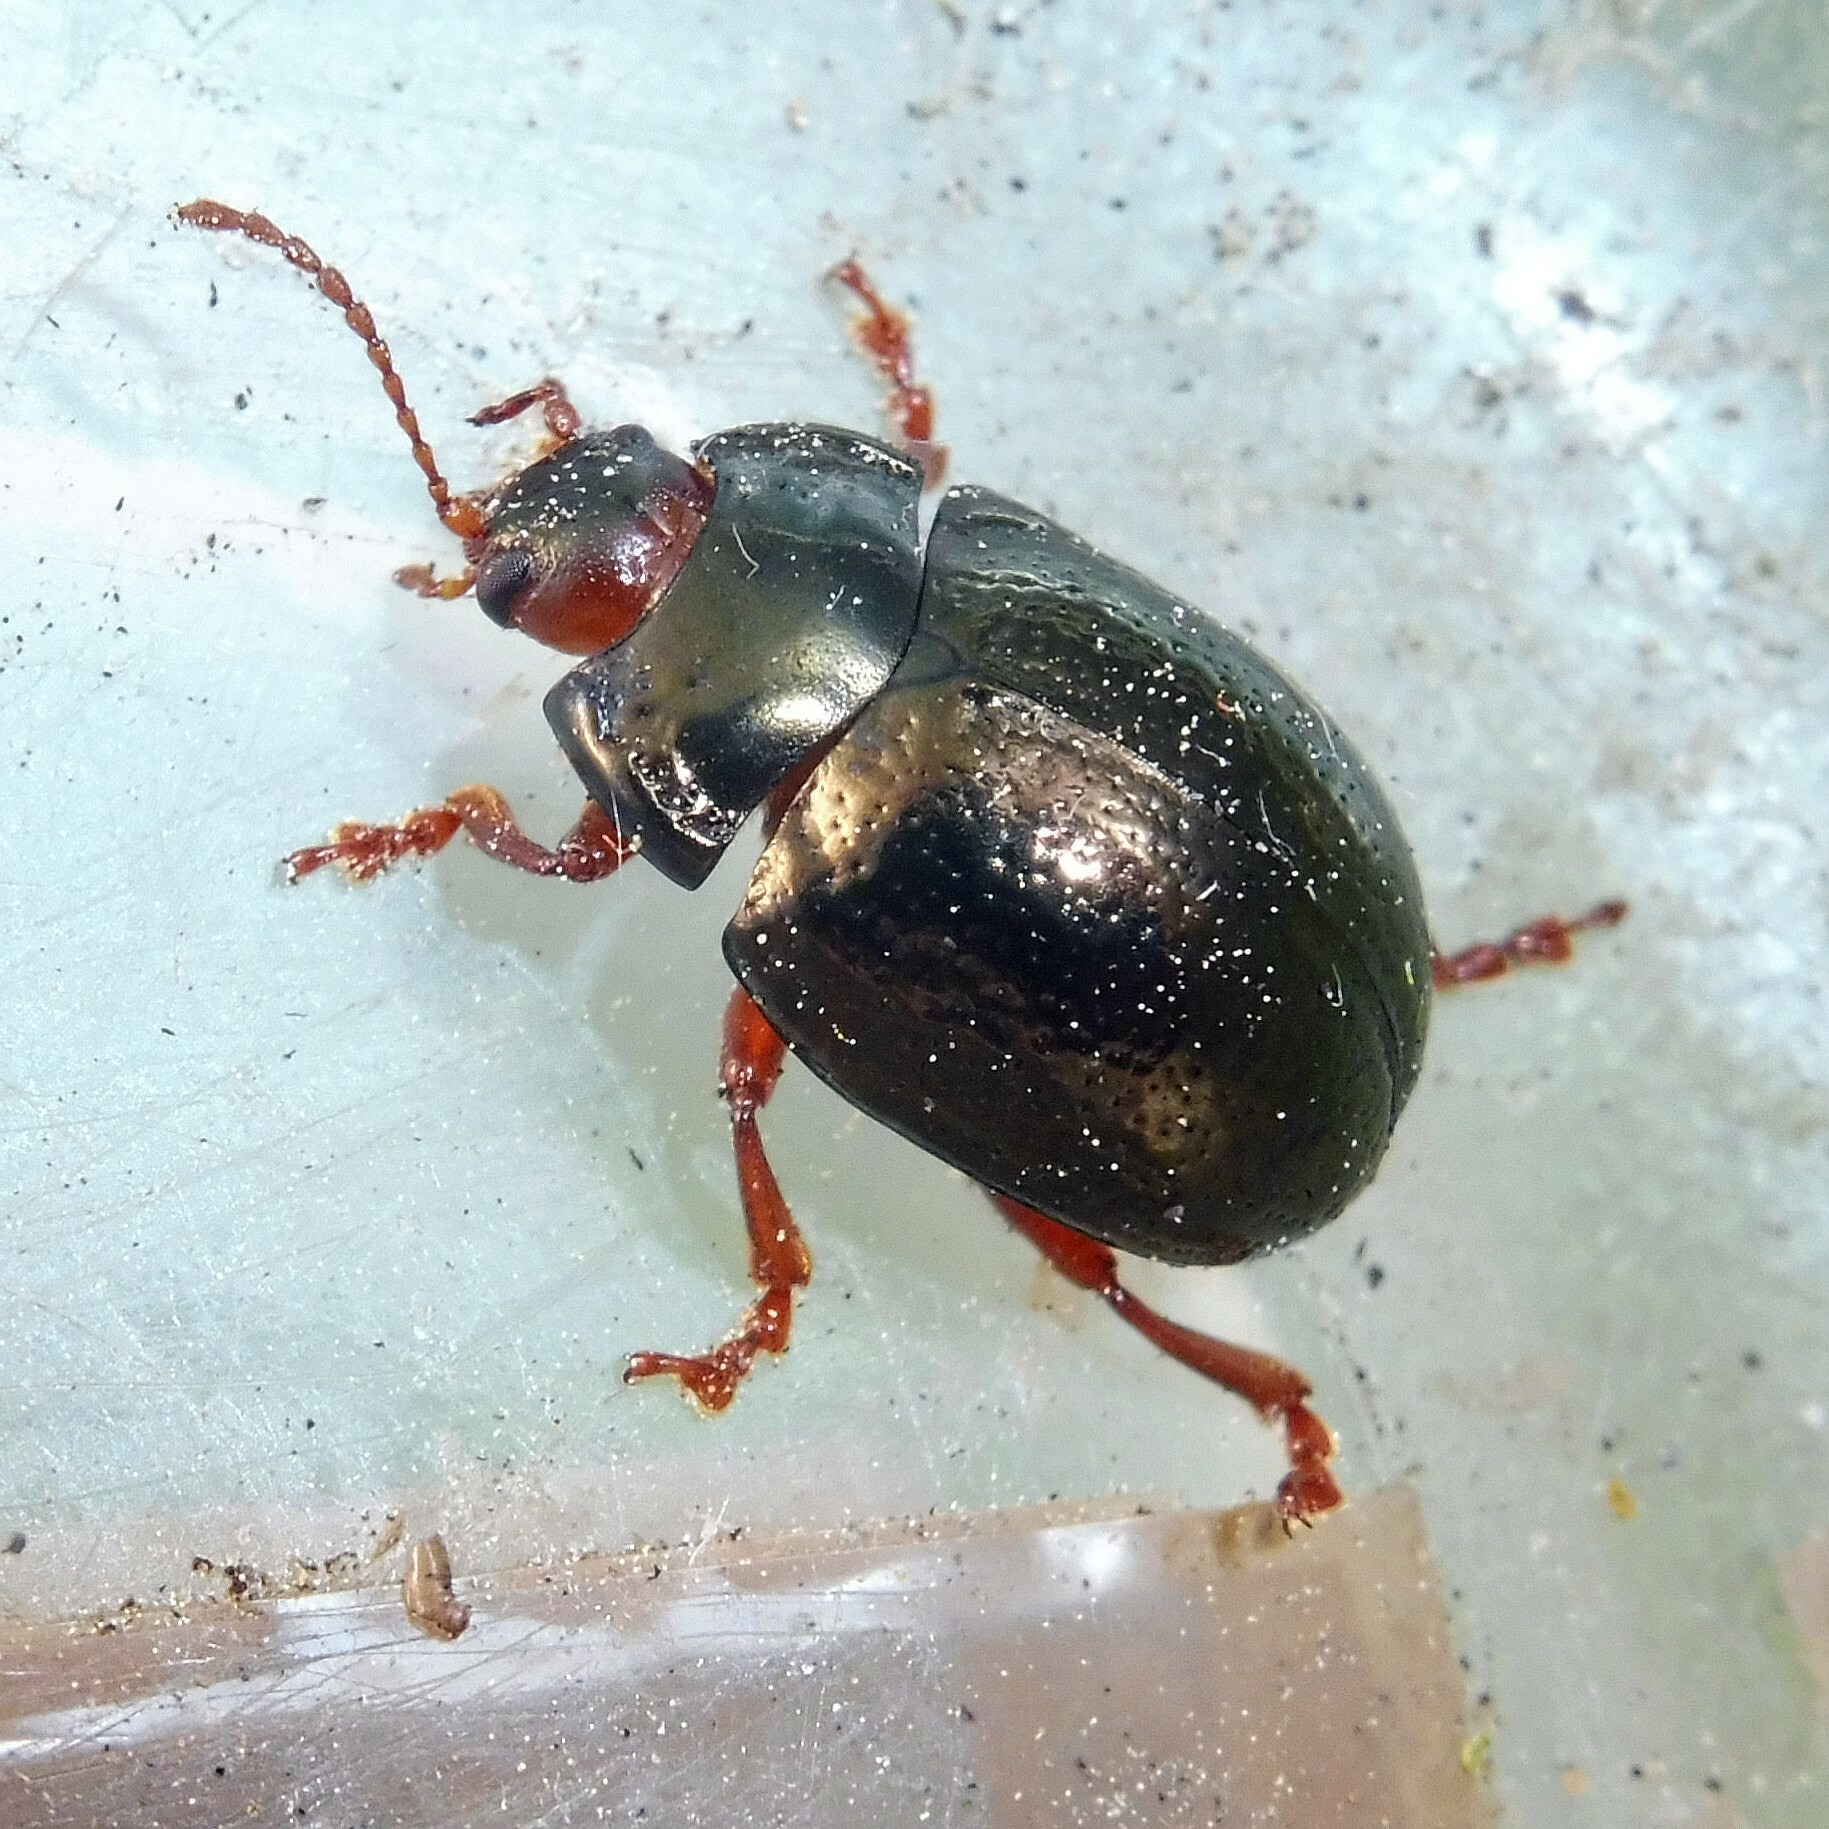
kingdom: Animalia
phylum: Arthropoda
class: Insecta
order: Coleoptera
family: Chrysomelidae
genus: Chrysolina
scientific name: Chrysolina bankii
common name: Leaf beetle
